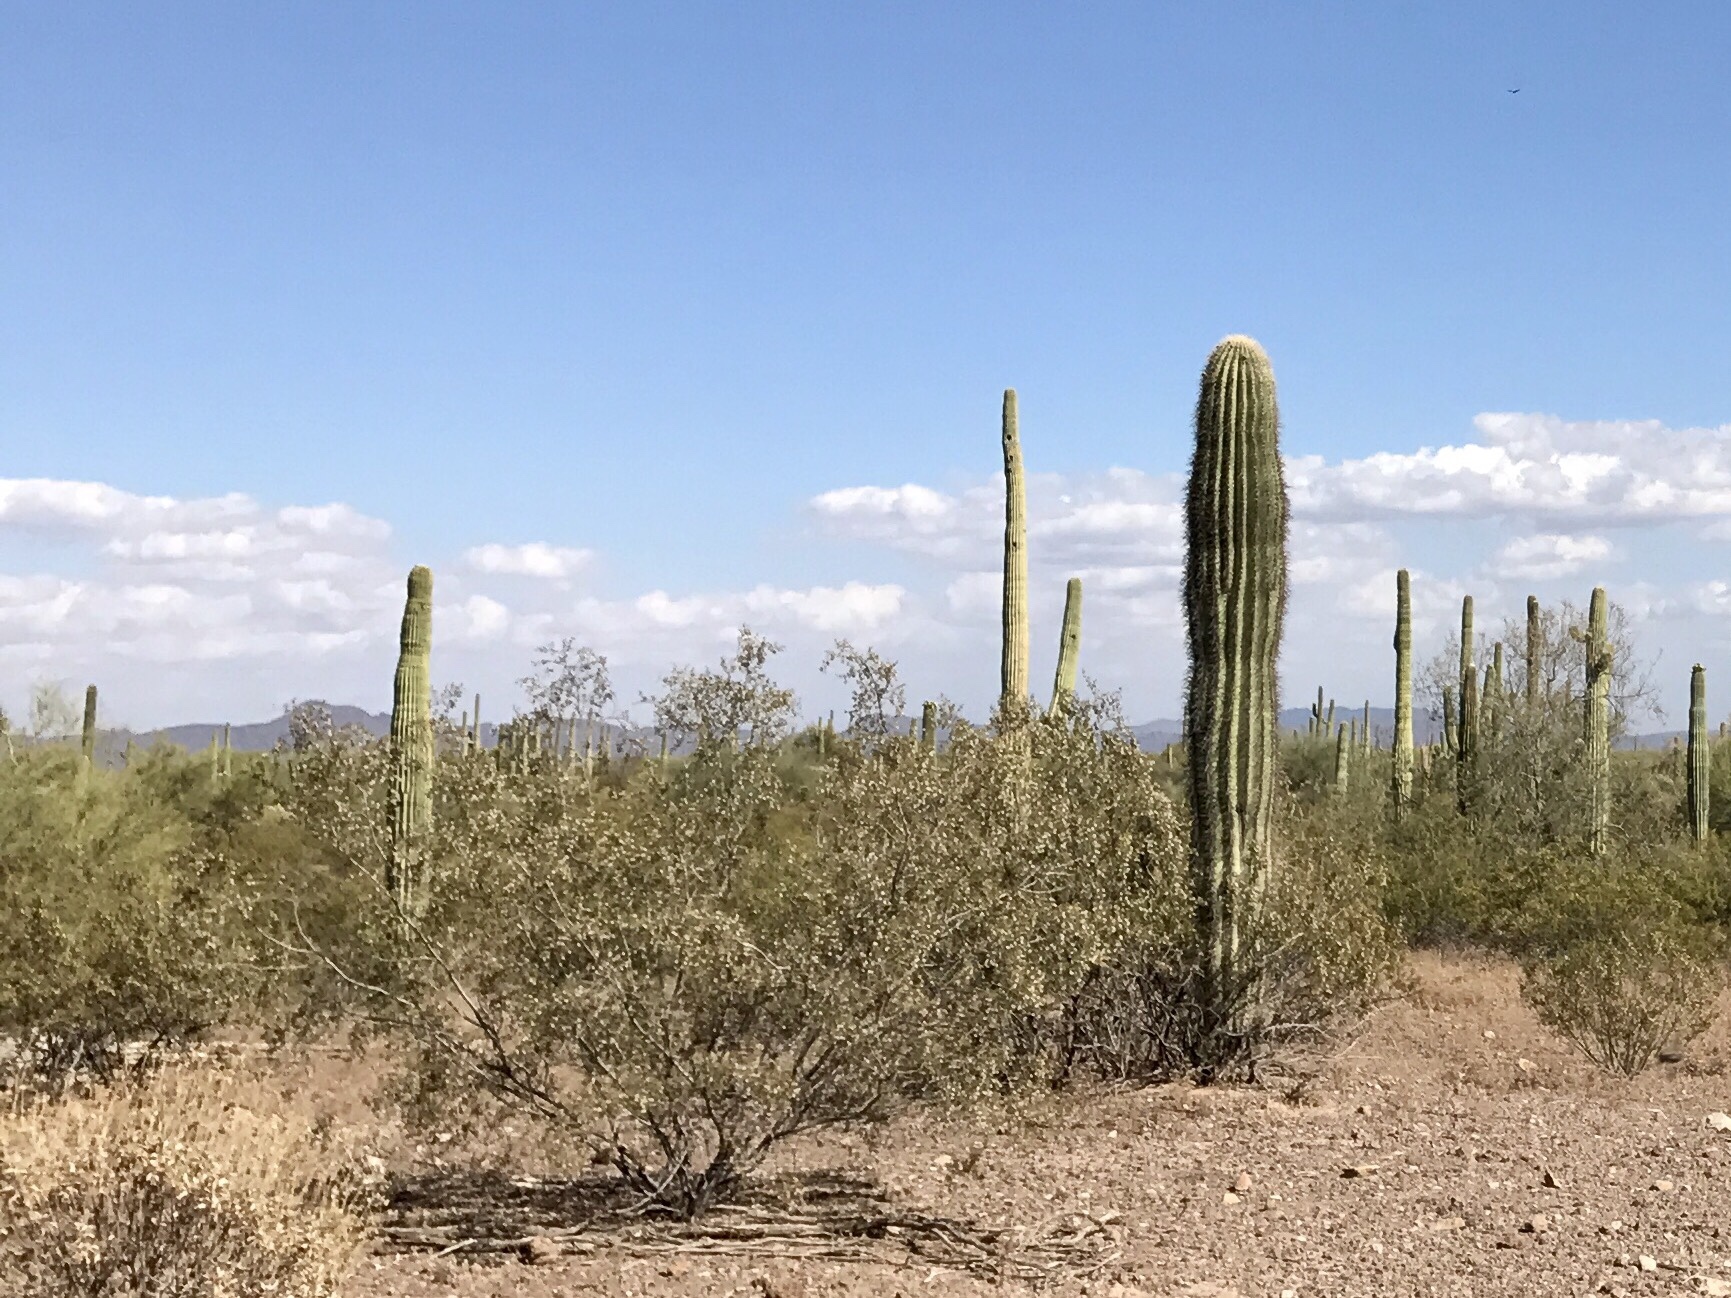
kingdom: Plantae
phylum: Tracheophyta
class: Magnoliopsida
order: Zygophyllales
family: Zygophyllaceae
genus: Larrea
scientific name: Larrea tridentata
